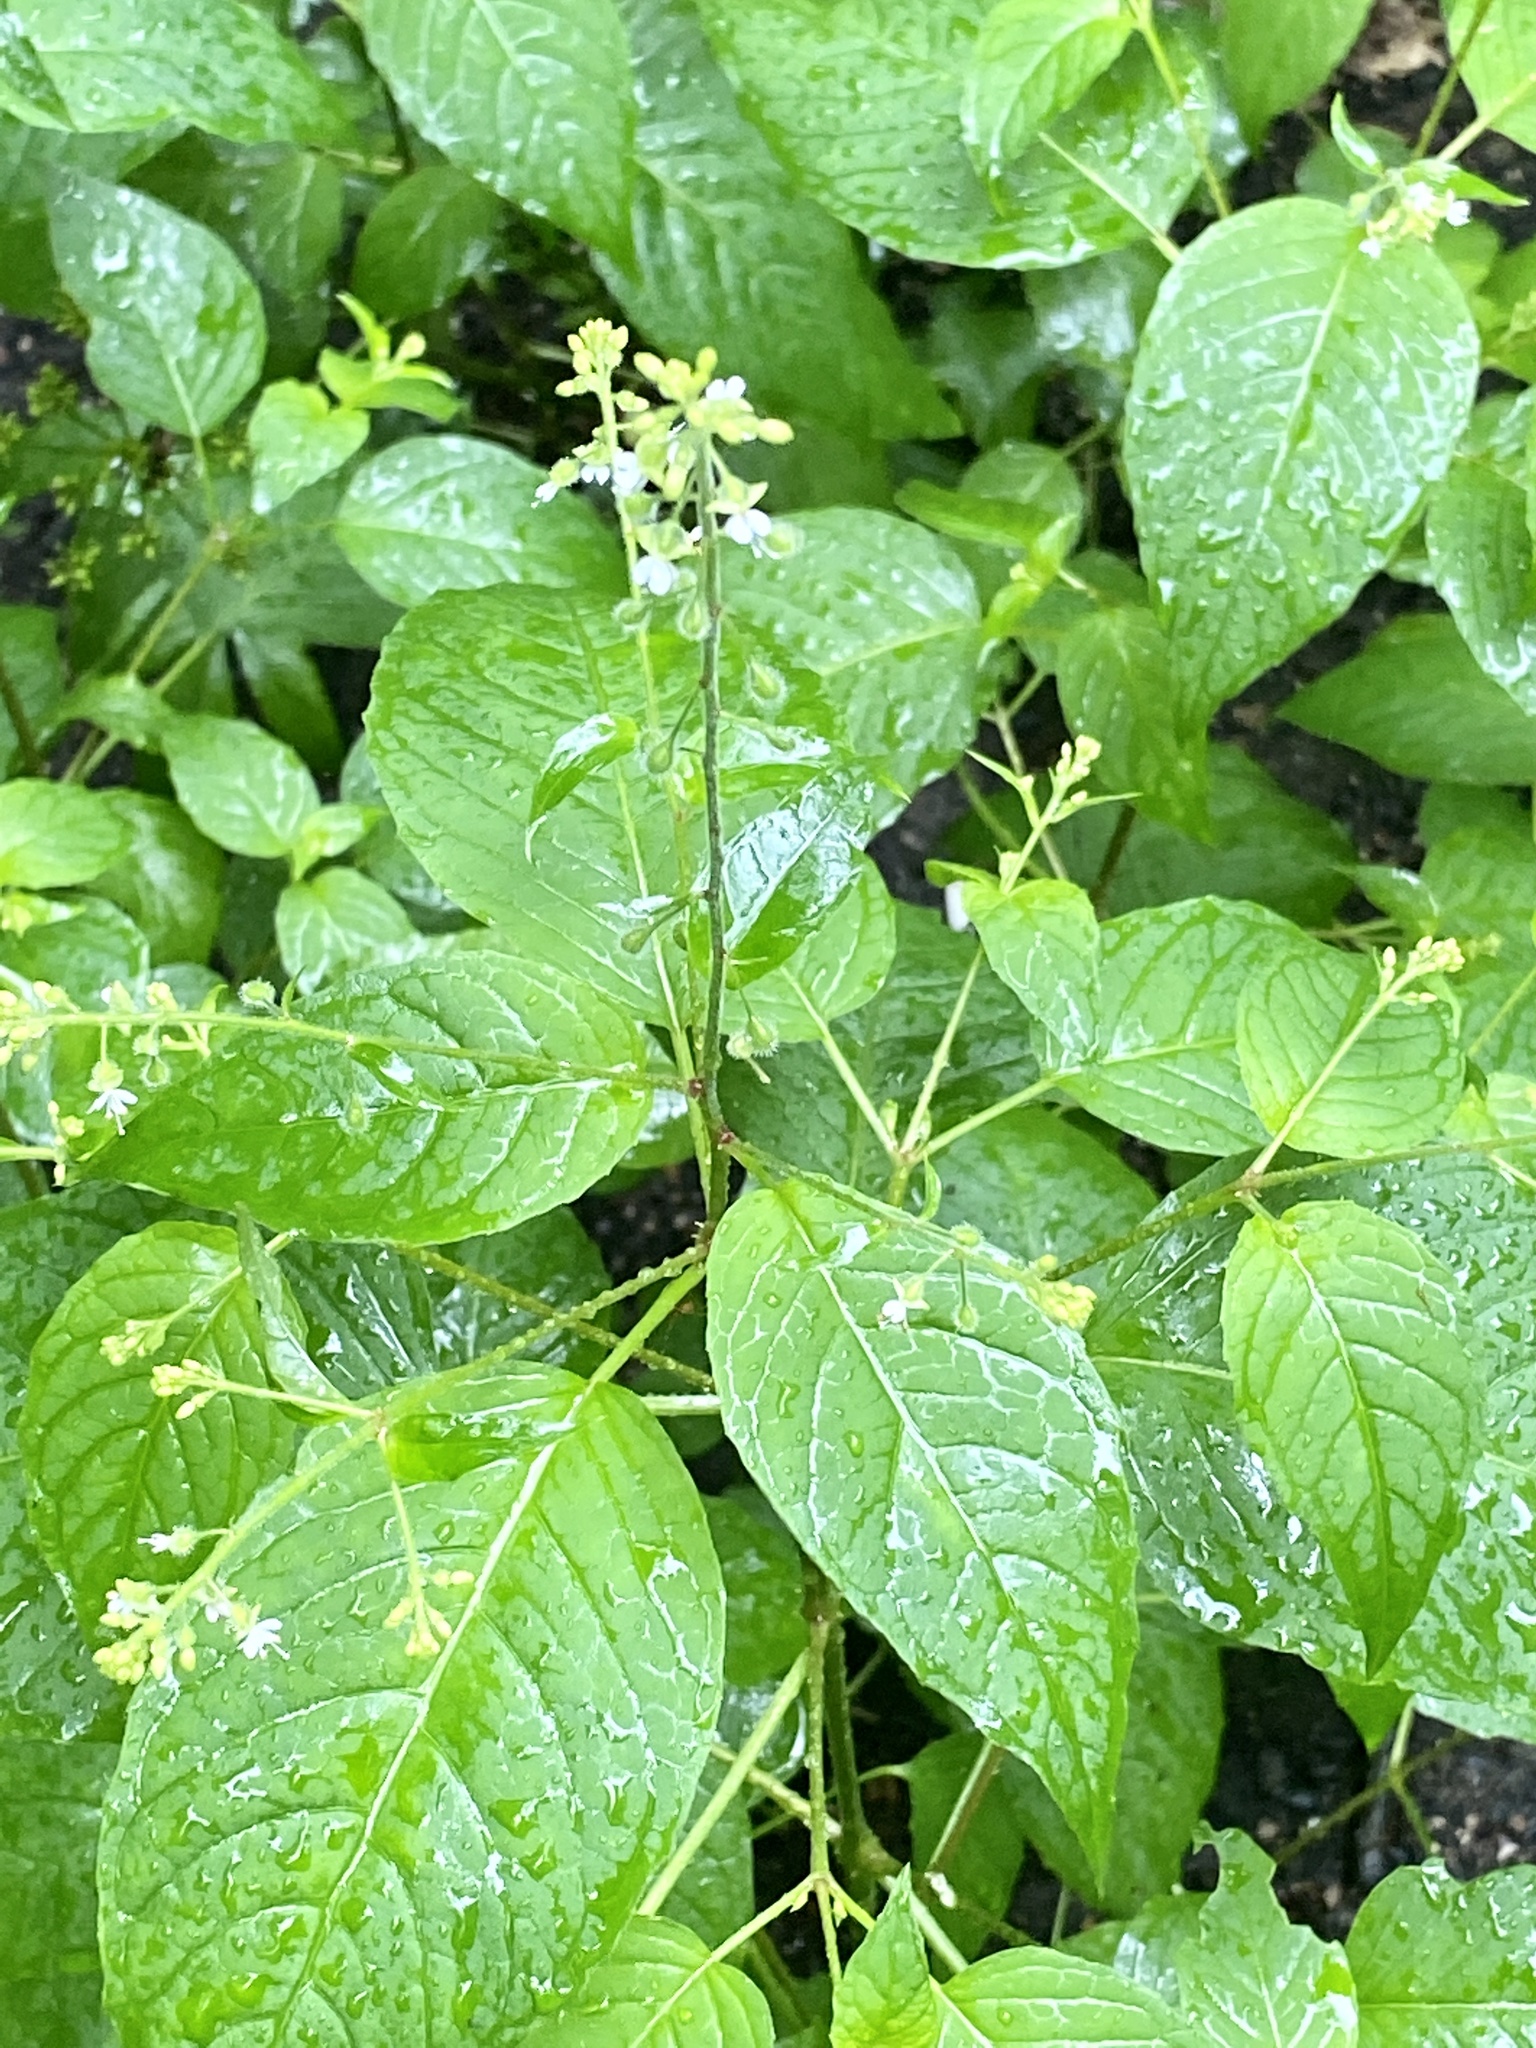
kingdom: Plantae
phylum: Tracheophyta
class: Magnoliopsida
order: Myrtales
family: Onagraceae
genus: Circaea
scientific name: Circaea canadensis
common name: Broad-leaved enchanter's nightshade
